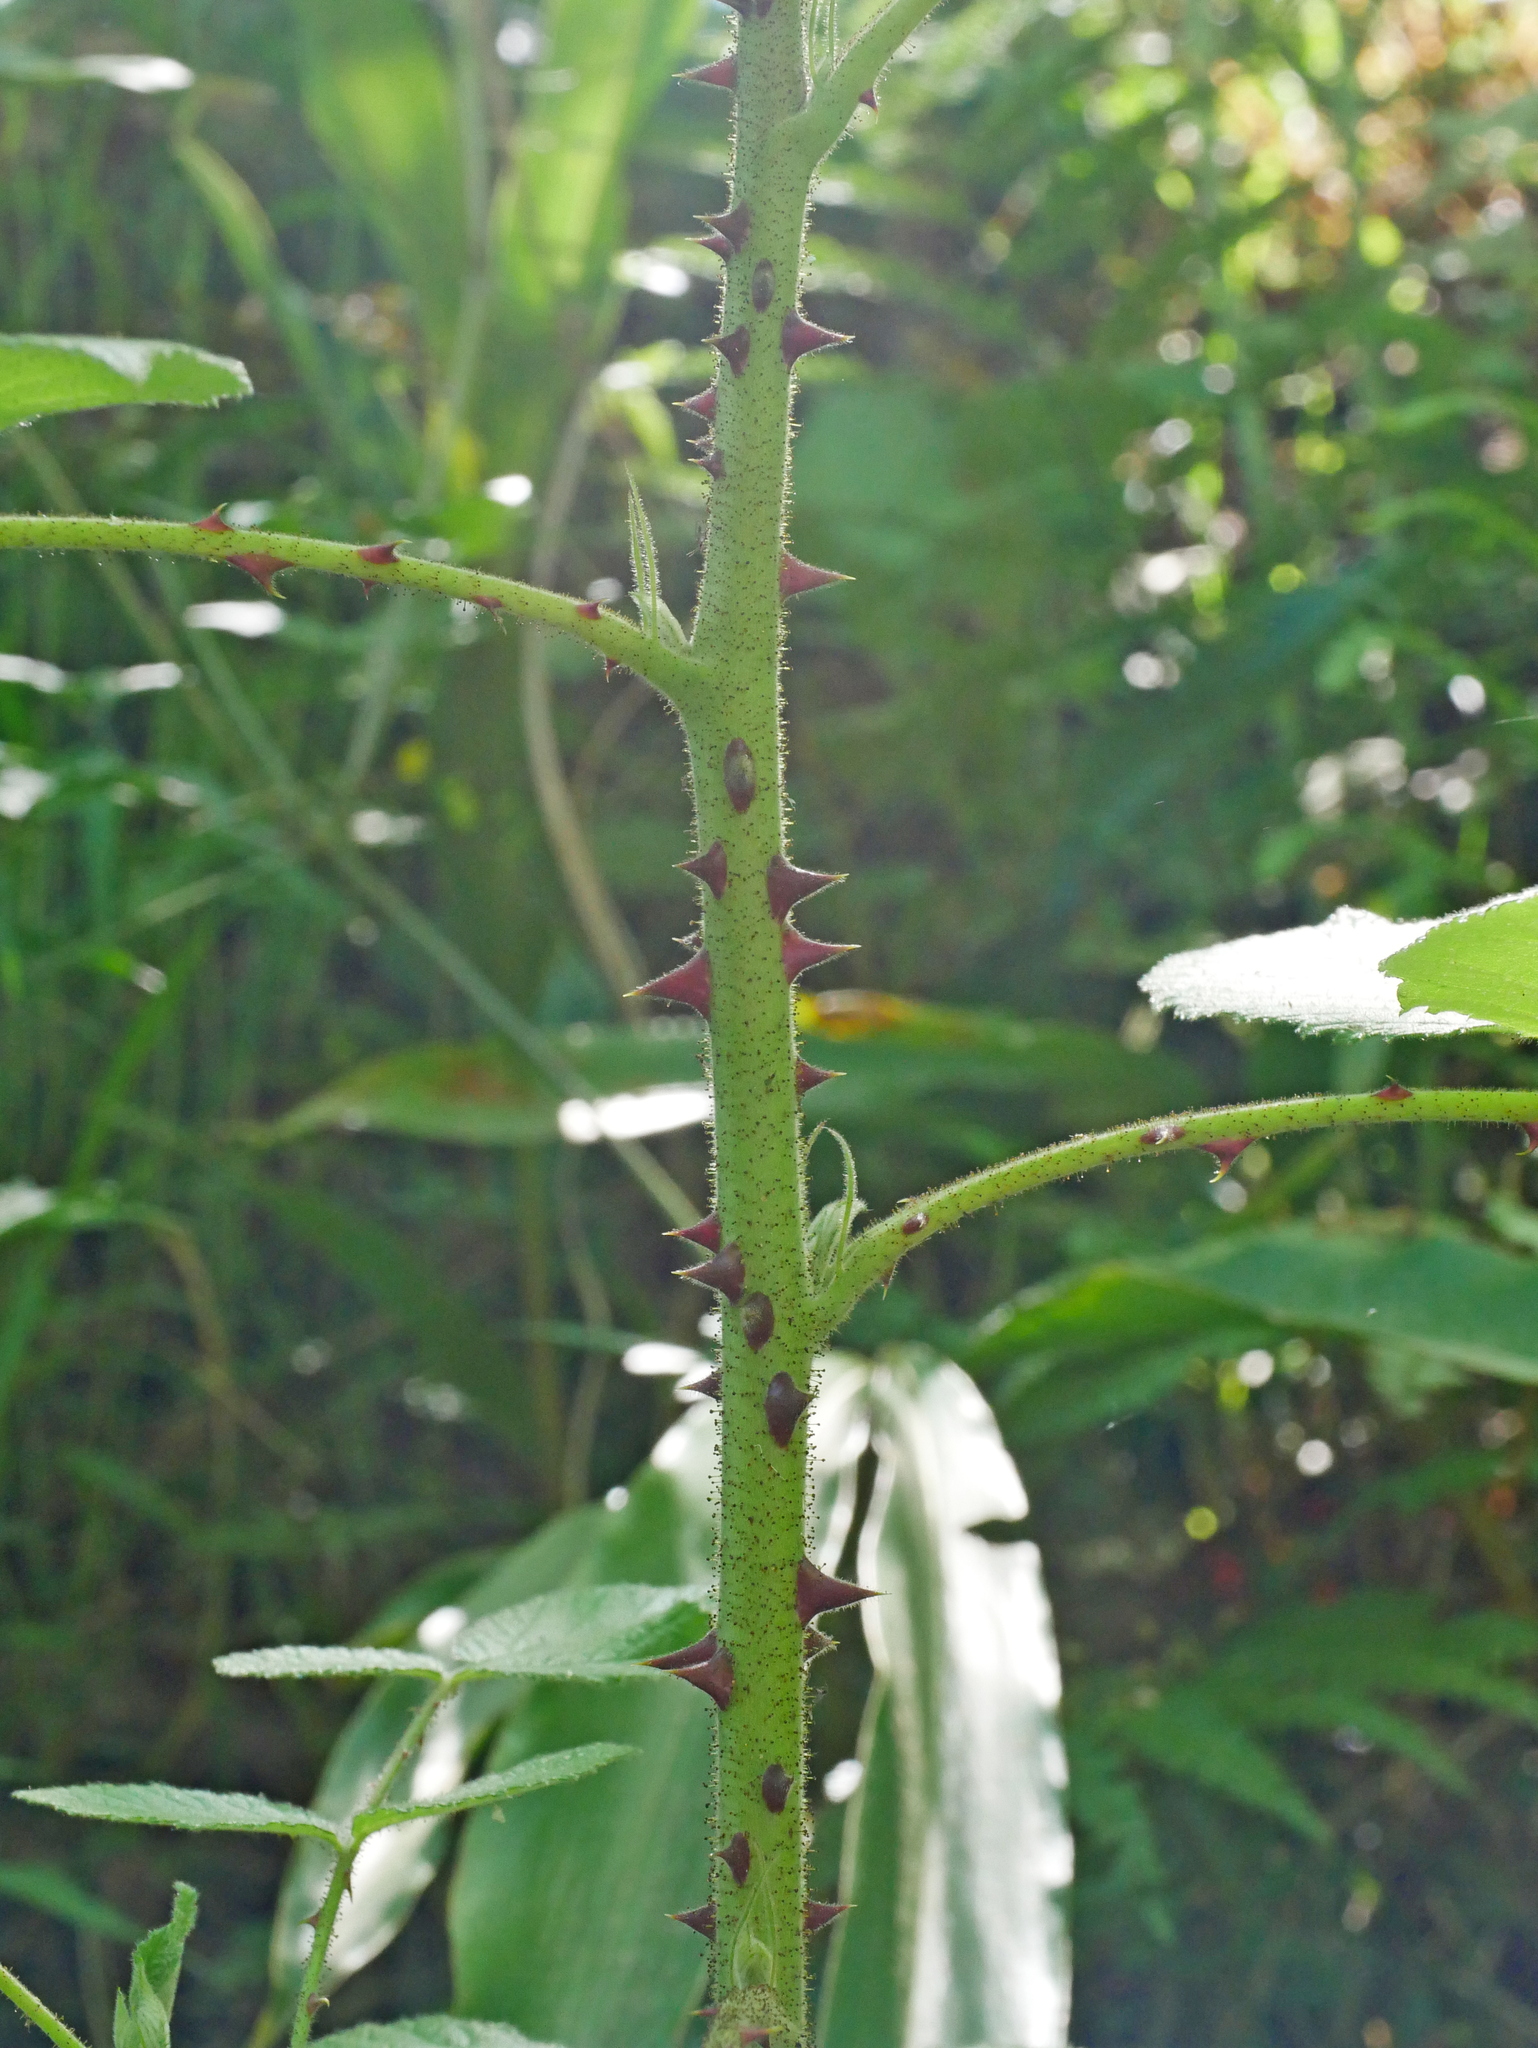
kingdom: Plantae
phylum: Tracheophyta
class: Magnoliopsida
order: Rosales
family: Rosaceae
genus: Rubus
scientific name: Rubus parviaraliifolius
